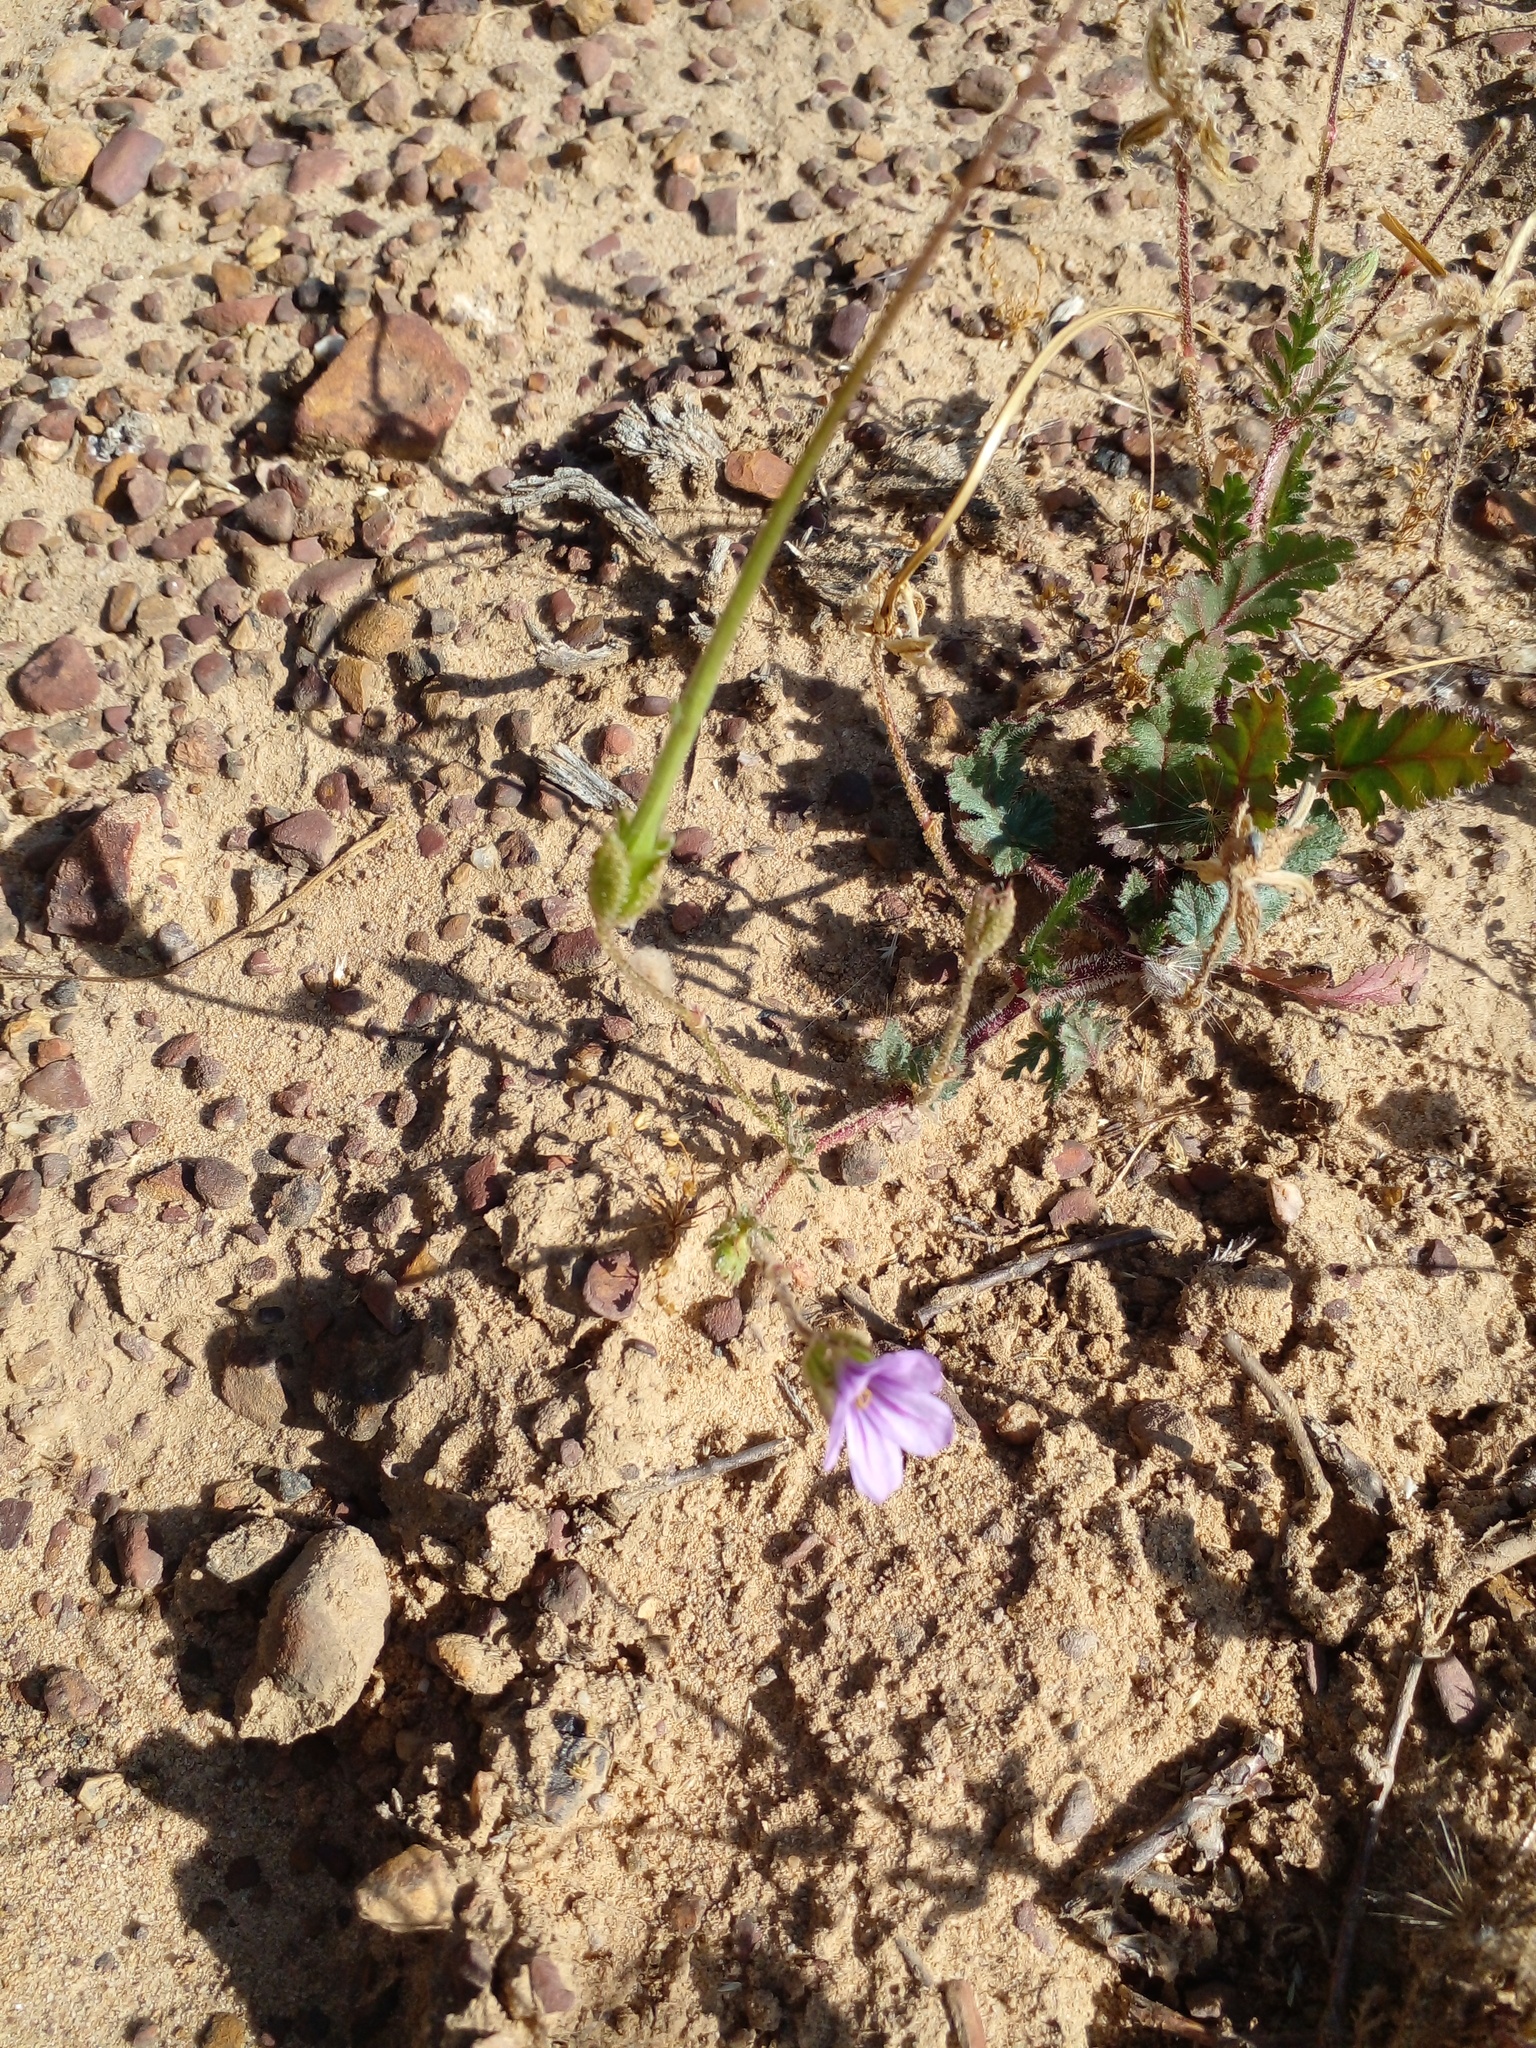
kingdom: Plantae
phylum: Tracheophyta
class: Magnoliopsida
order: Geraniales
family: Geraniaceae
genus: Erodium
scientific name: Erodium botrys
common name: Mediterranean stork's-bill
